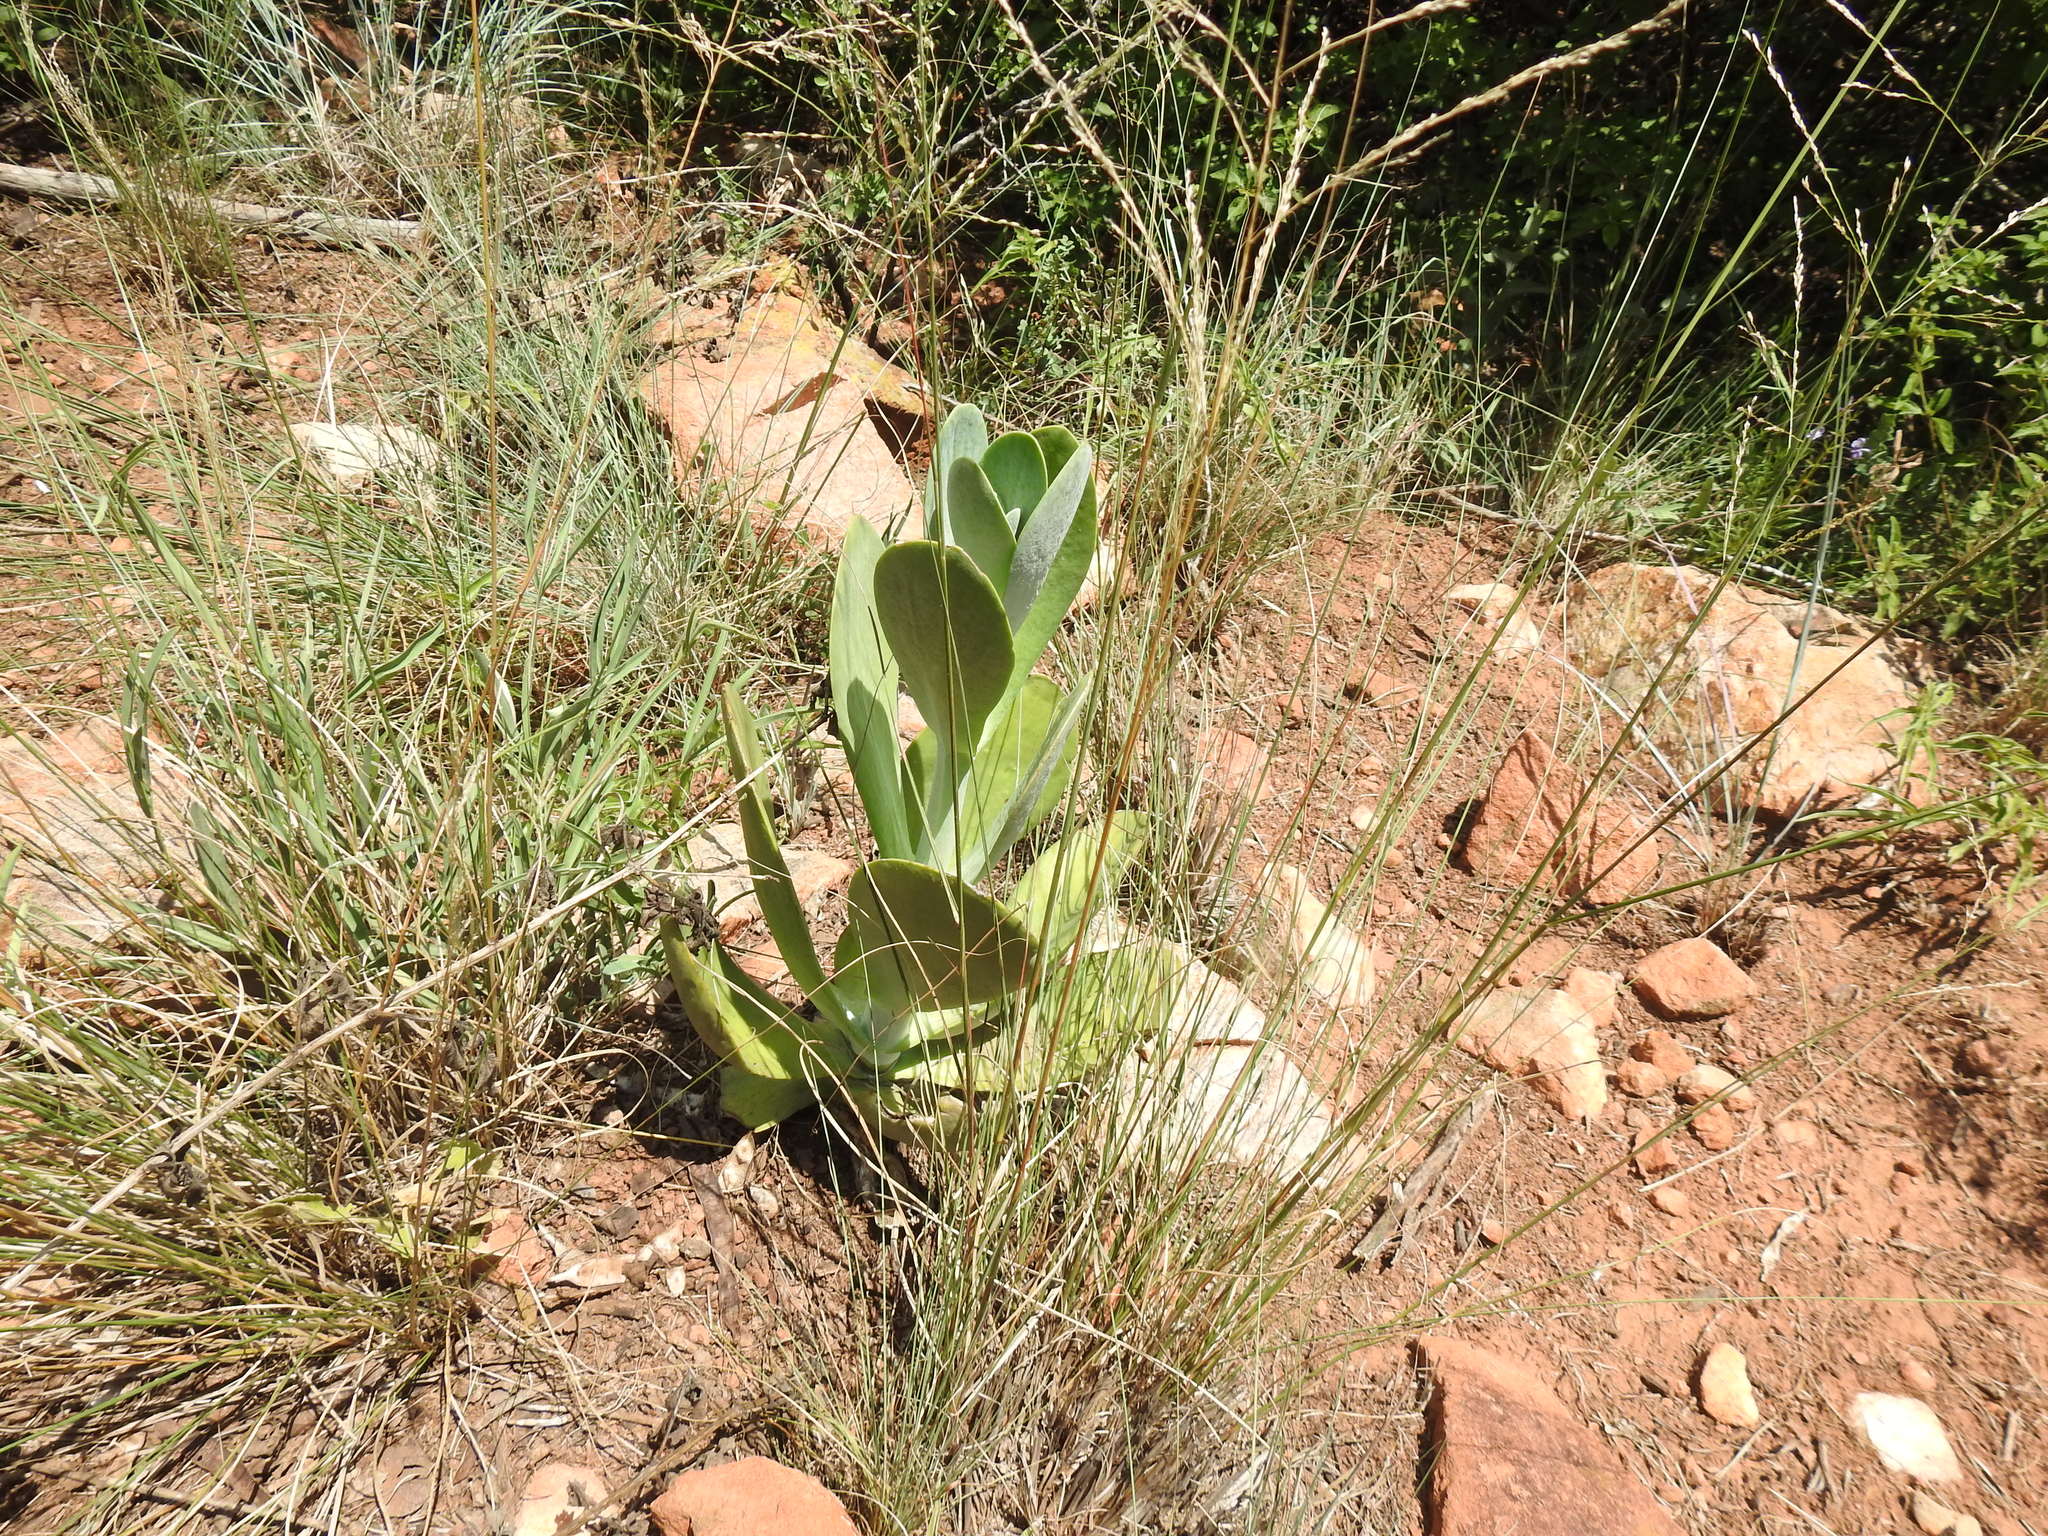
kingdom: Plantae
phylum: Tracheophyta
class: Magnoliopsida
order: Saxifragales
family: Crassulaceae
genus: Kalanchoe
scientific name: Kalanchoe thyrsiflora
